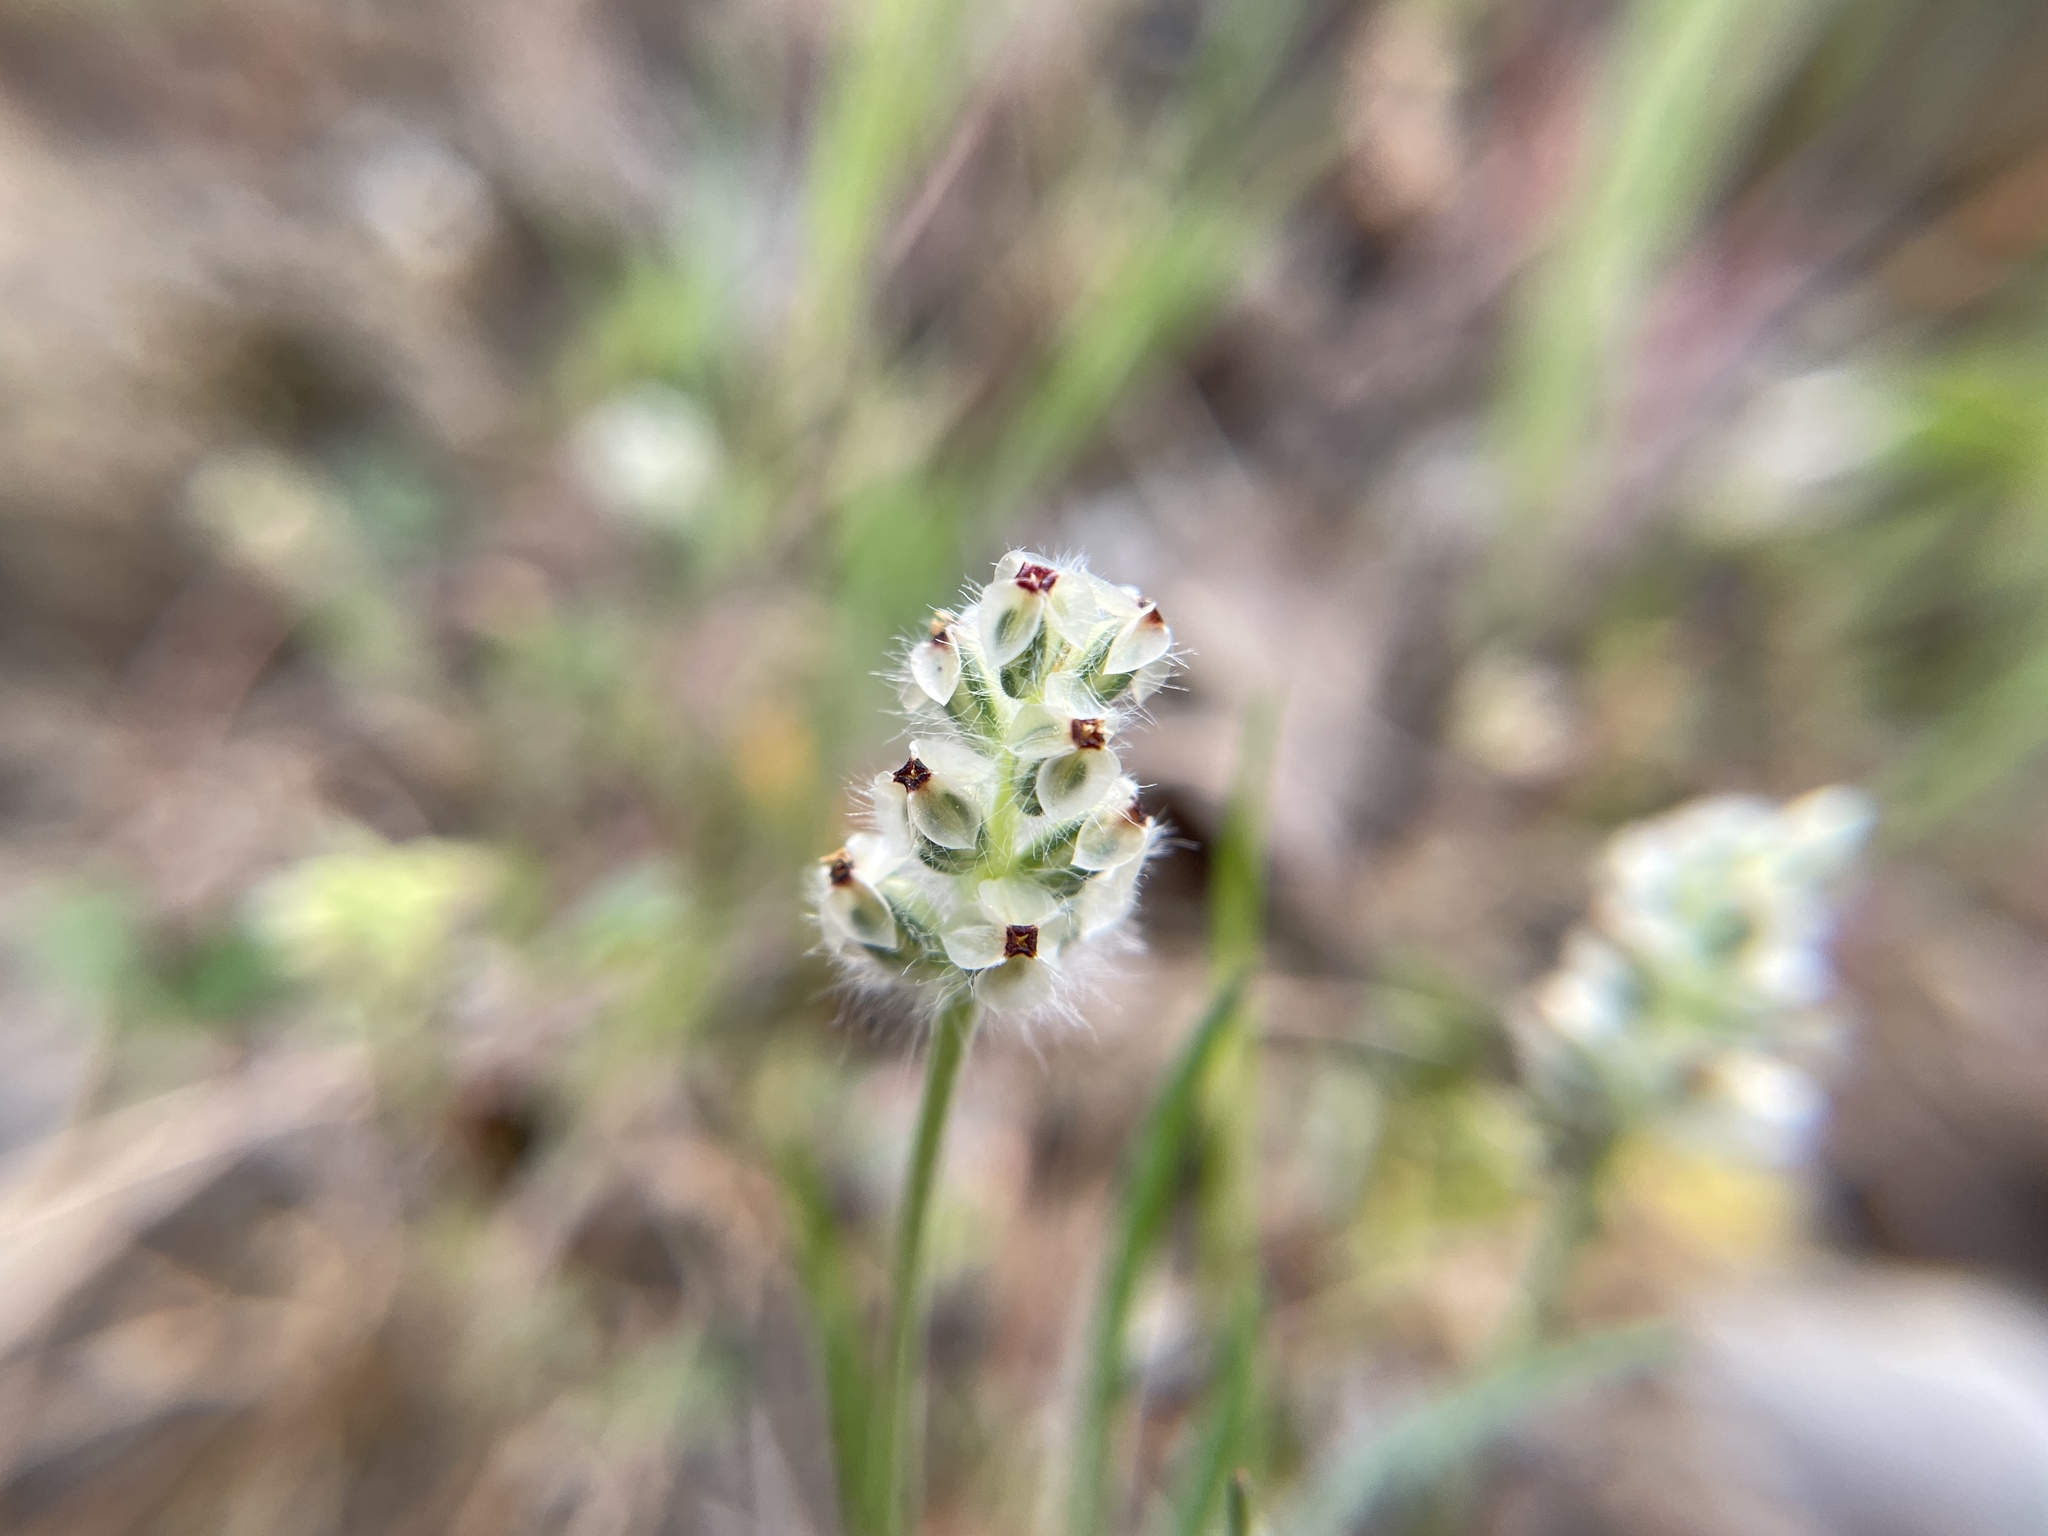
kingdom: Plantae
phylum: Tracheophyta
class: Magnoliopsida
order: Lamiales
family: Plantaginaceae
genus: Plantago
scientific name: Plantago erecta
